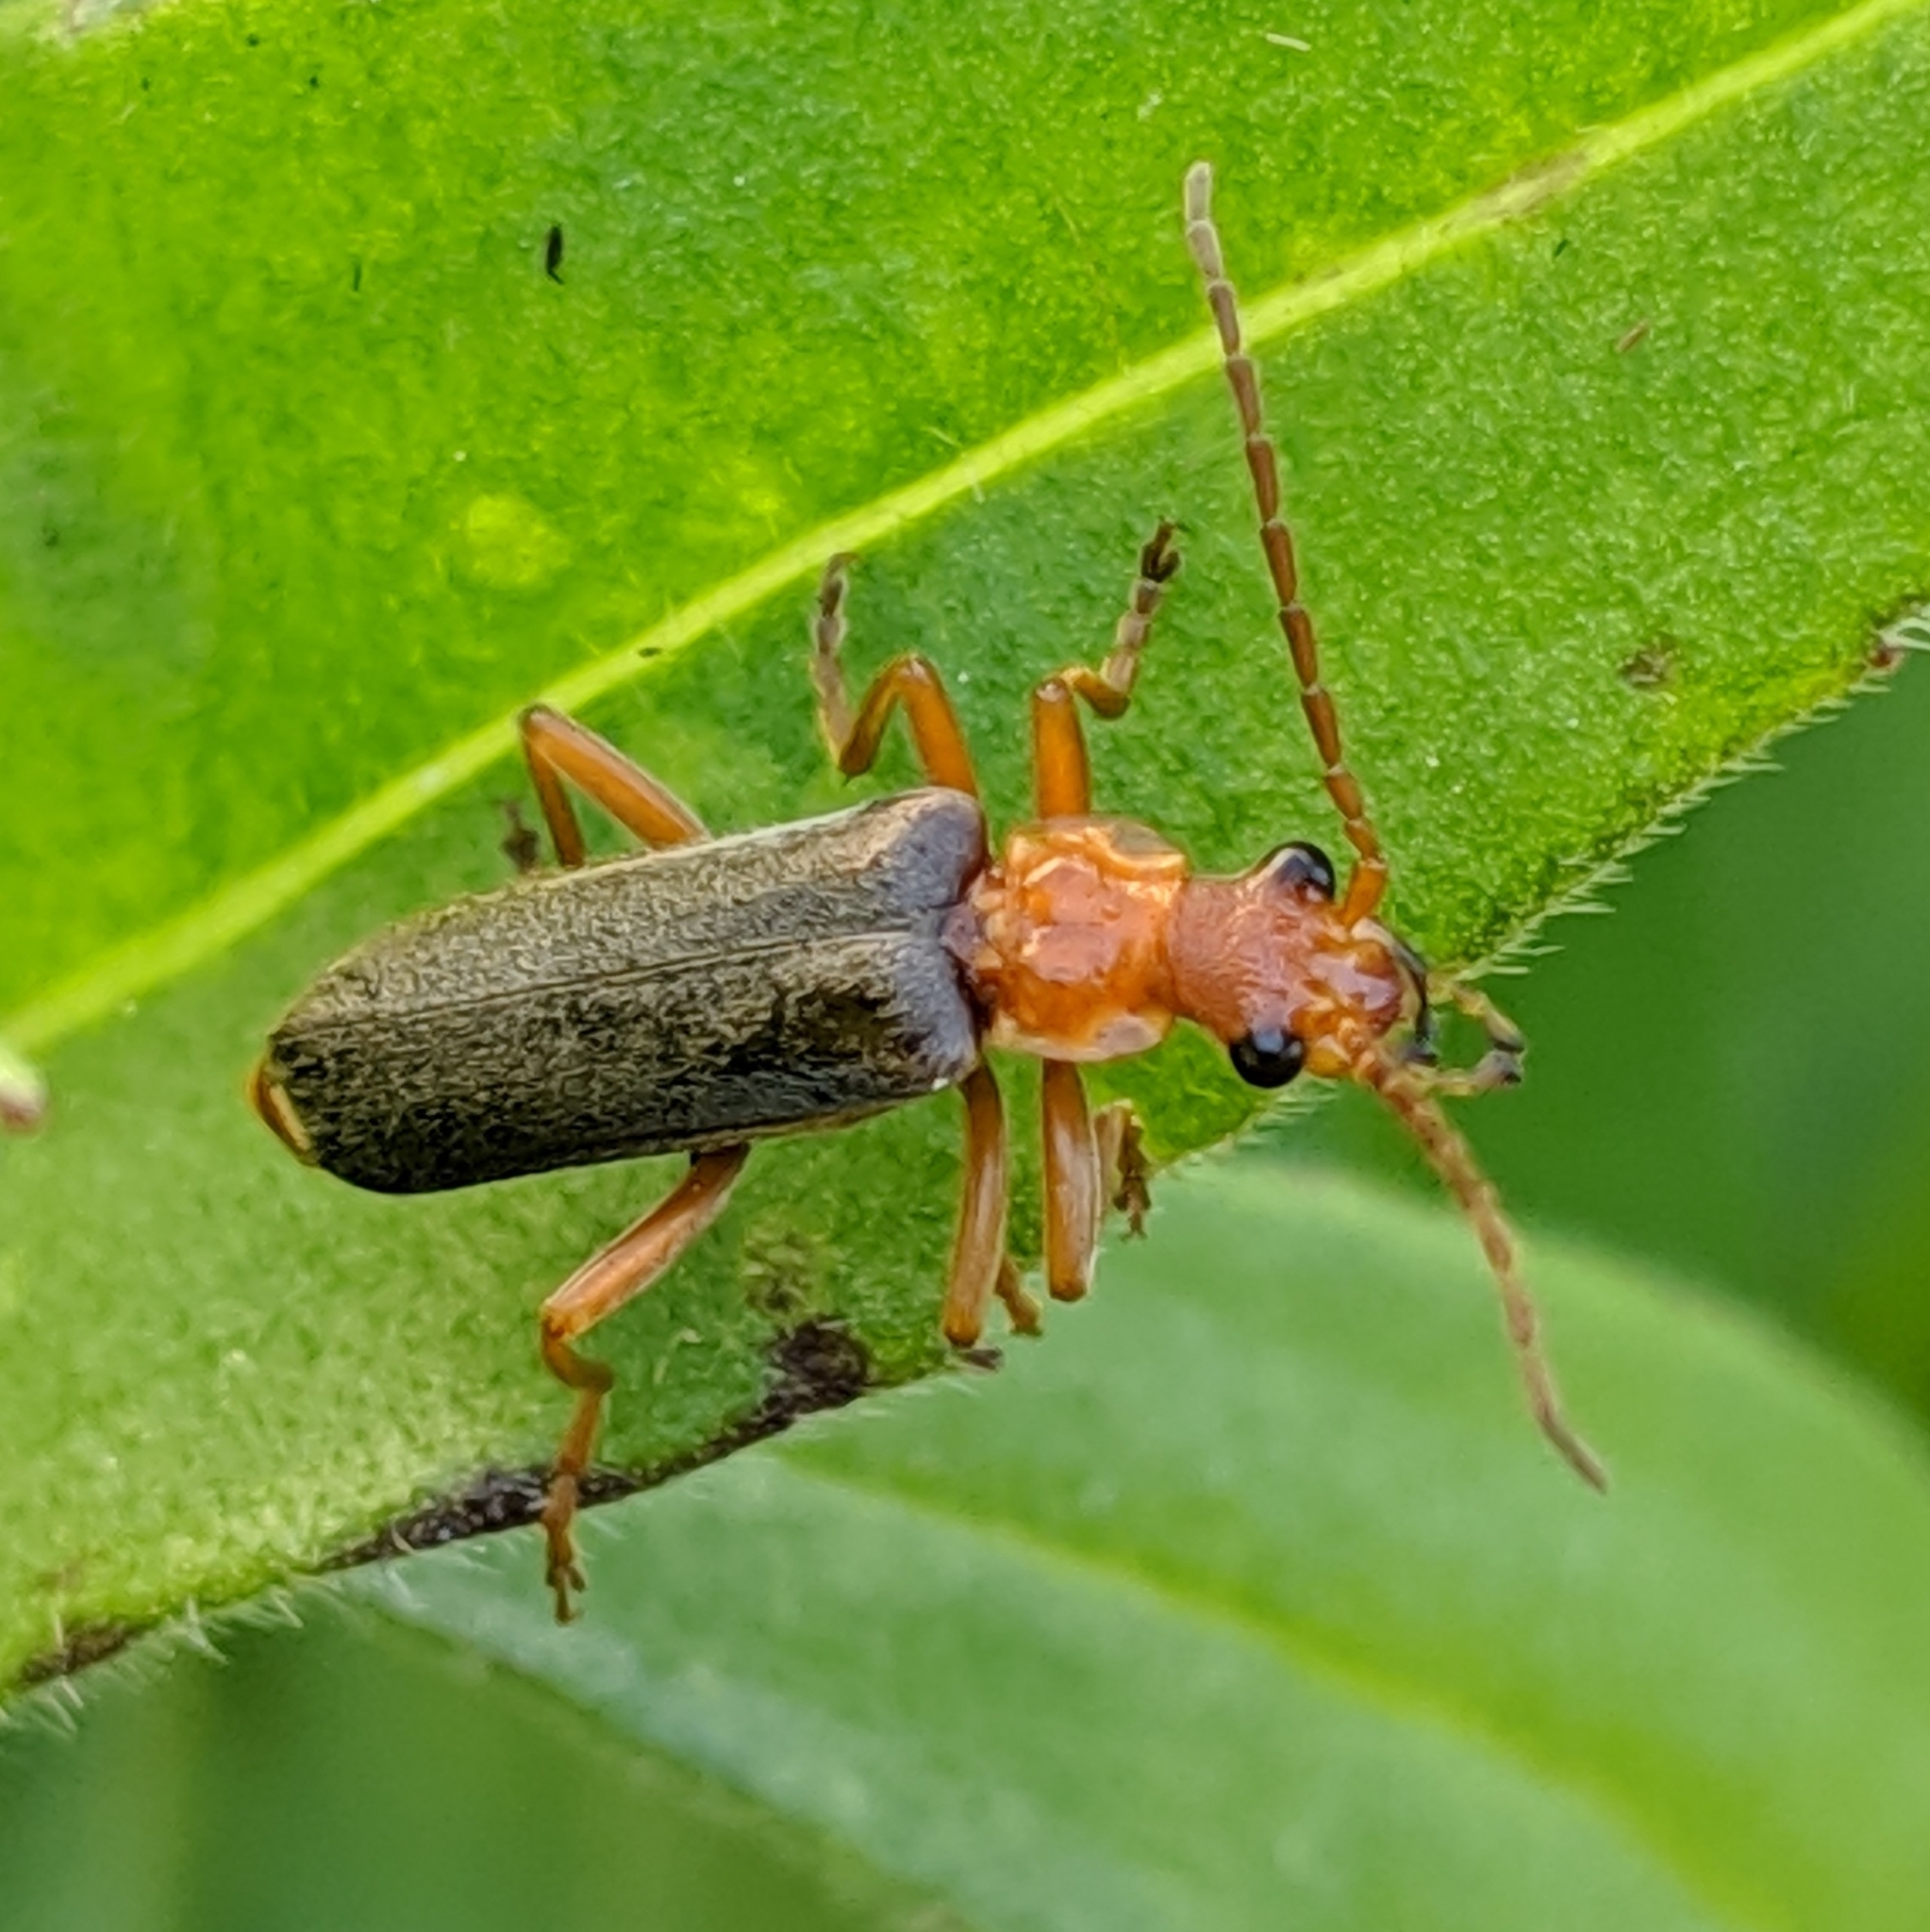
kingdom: Animalia
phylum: Arthropoda
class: Insecta
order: Coleoptera
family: Cantharidae
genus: Podabrus
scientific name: Podabrus pruinosus
